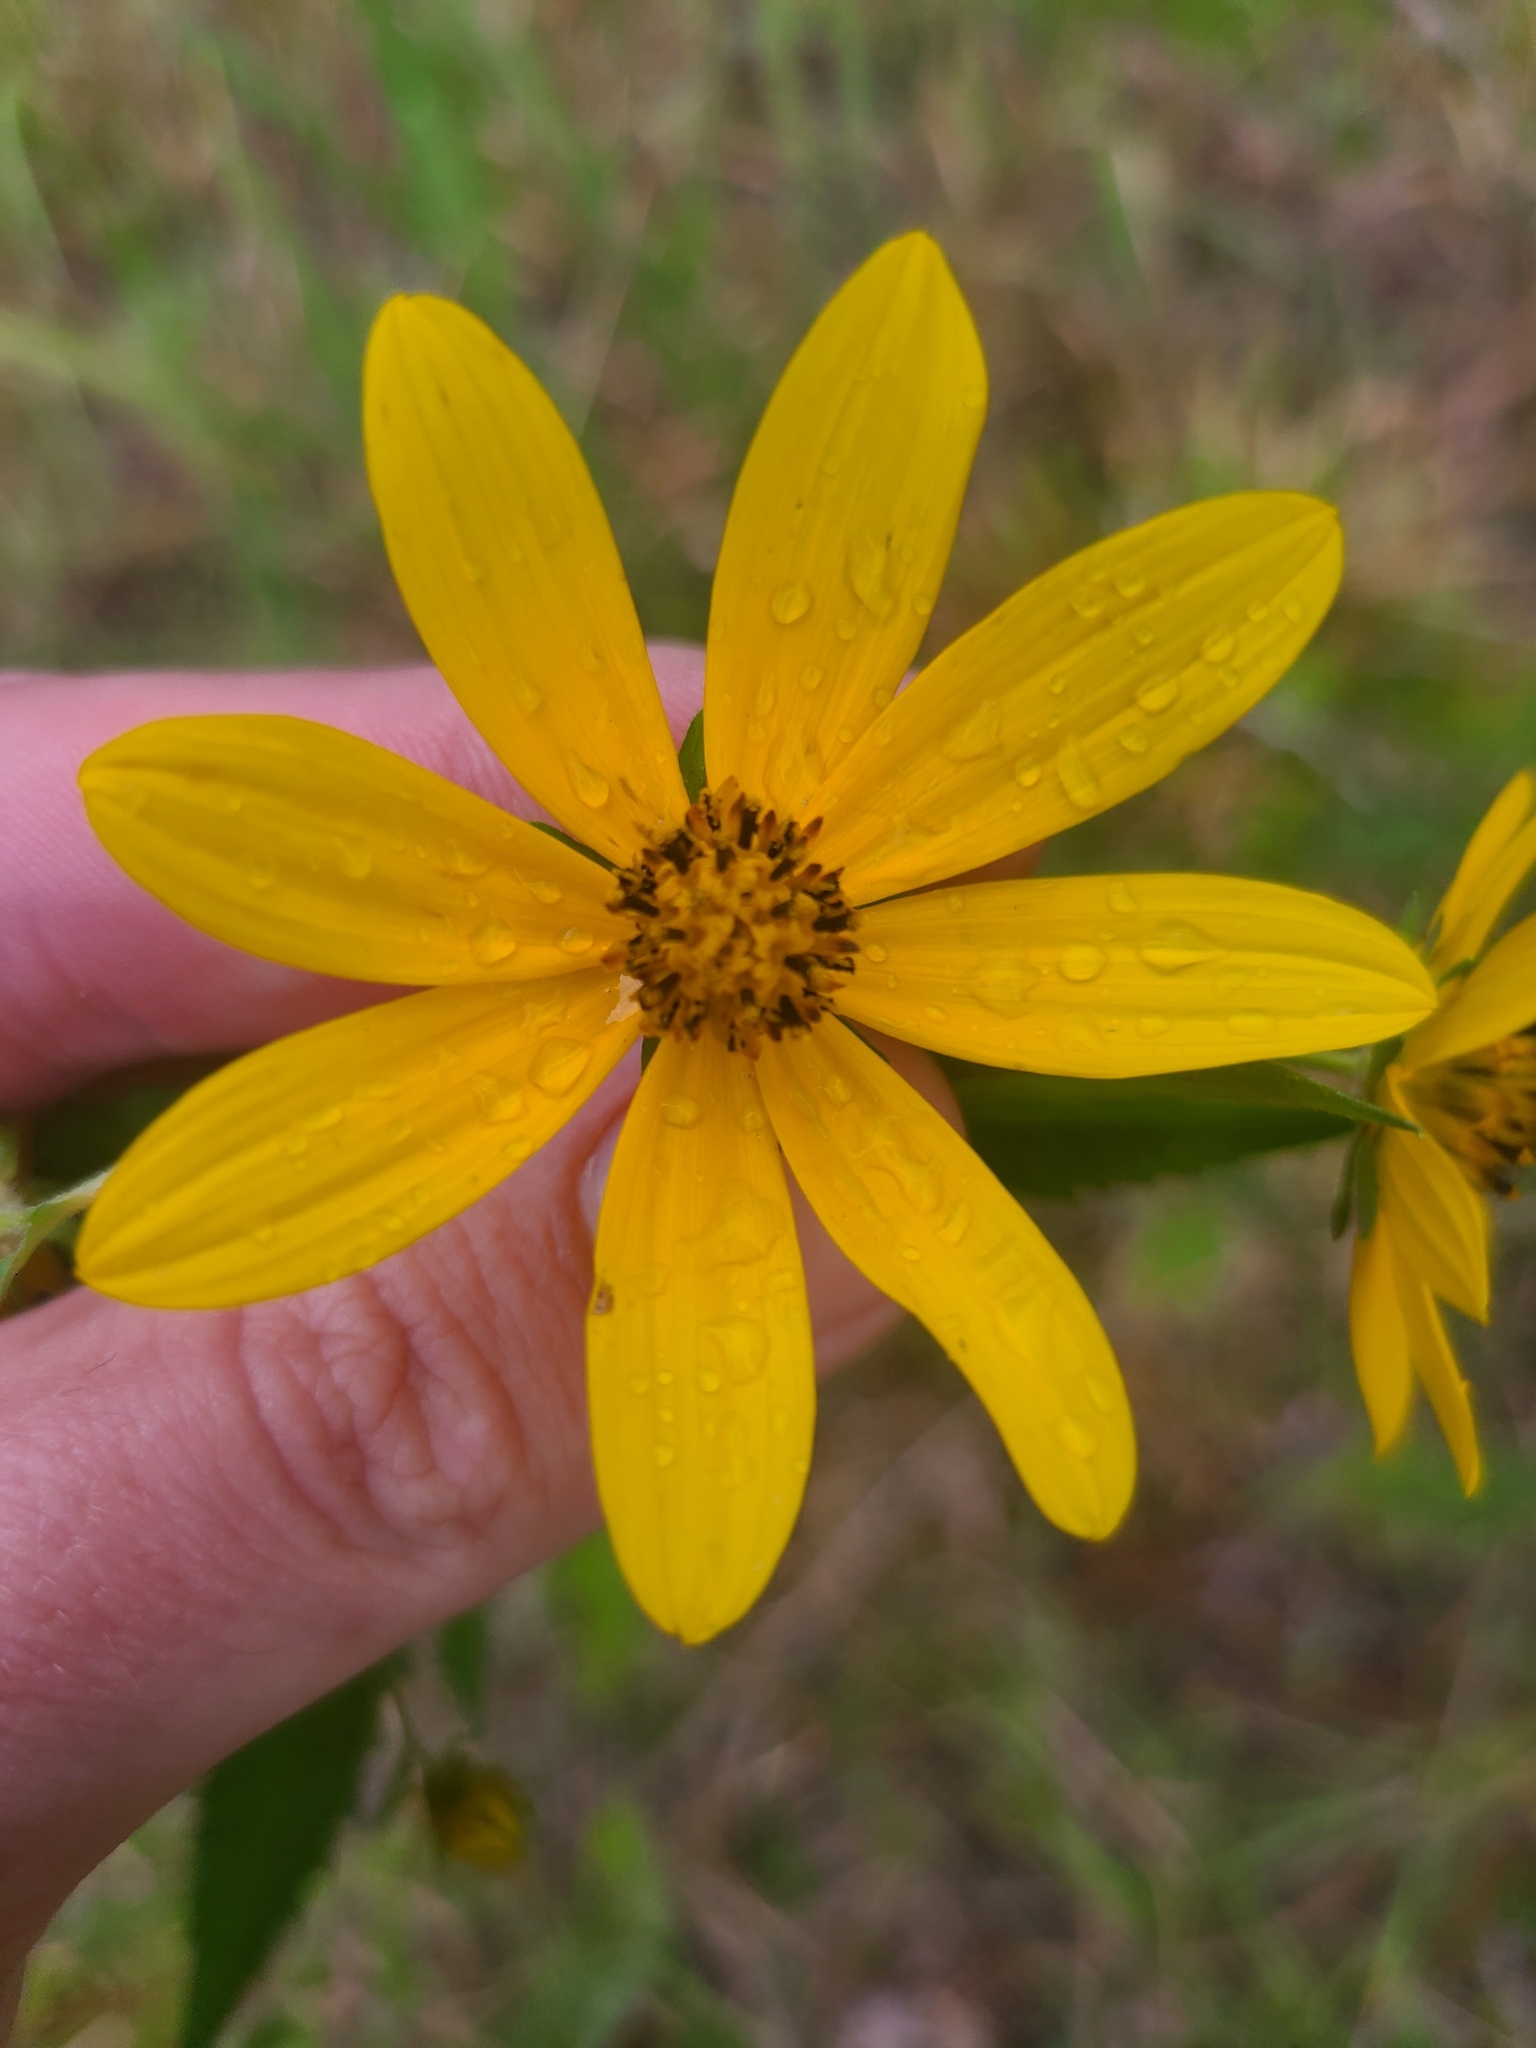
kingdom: Plantae
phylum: Tracheophyta
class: Magnoliopsida
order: Asterales
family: Asteraceae
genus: Bidens
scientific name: Bidens aristosa
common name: Western tickseed
